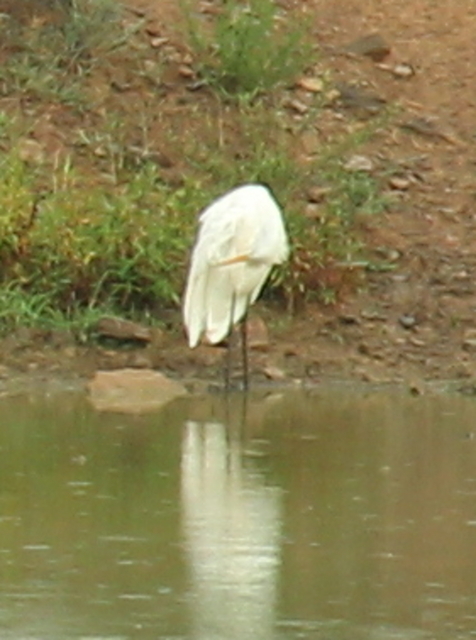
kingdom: Animalia
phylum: Chordata
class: Aves
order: Pelecaniformes
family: Ardeidae
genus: Ardea
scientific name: Ardea alba
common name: Great egret
